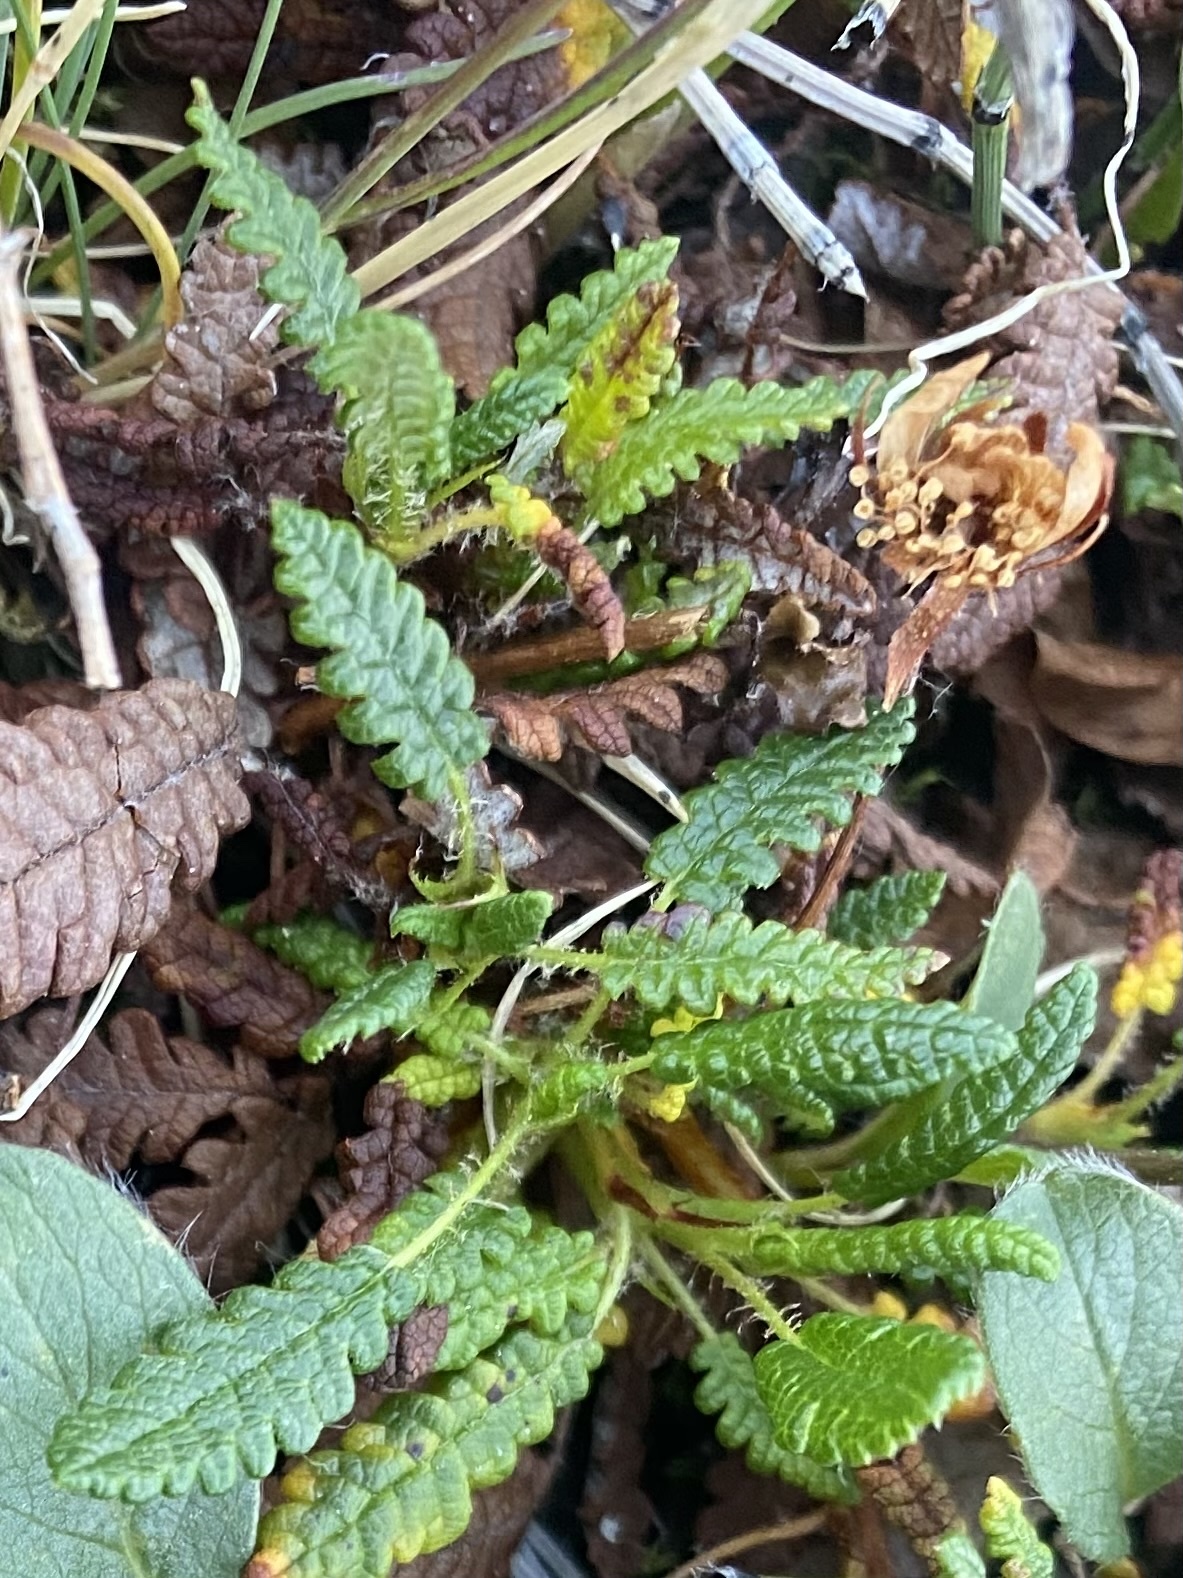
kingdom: Plantae
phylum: Tracheophyta
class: Magnoliopsida
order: Rosales
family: Rosaceae
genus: Dryas
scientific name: Dryas octopetala
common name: Eight-petal mountain-avens
